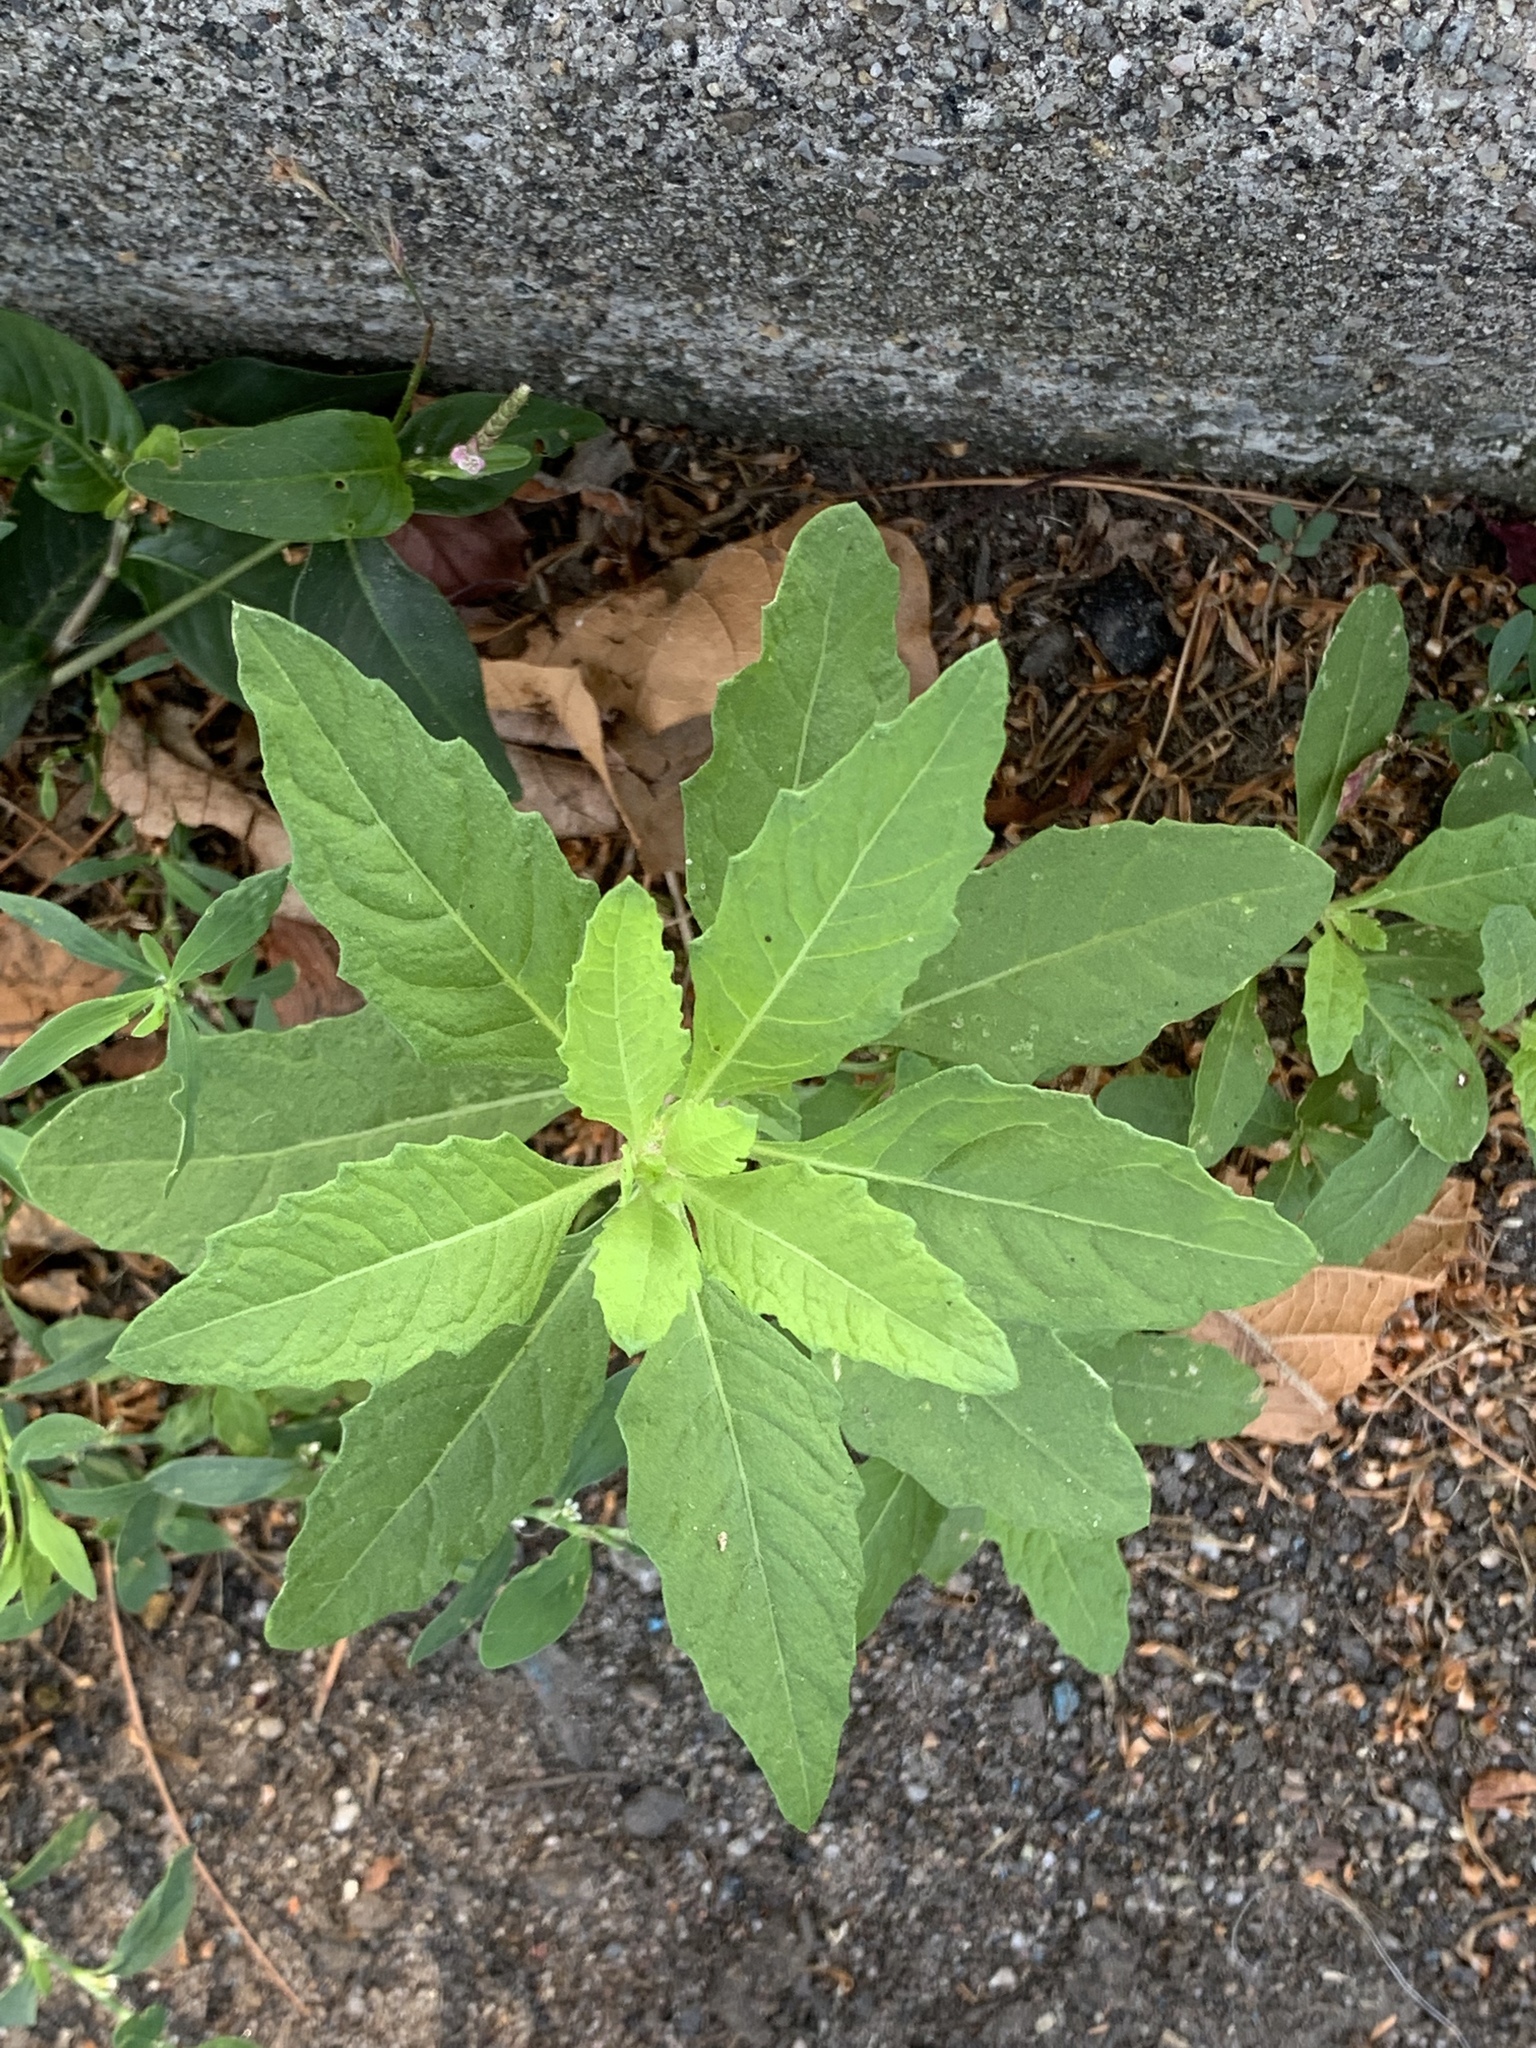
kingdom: Plantae
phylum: Tracheophyta
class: Magnoliopsida
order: Caryophyllales
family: Amaranthaceae
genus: Dysphania
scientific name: Dysphania ambrosioides
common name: Wormseed
